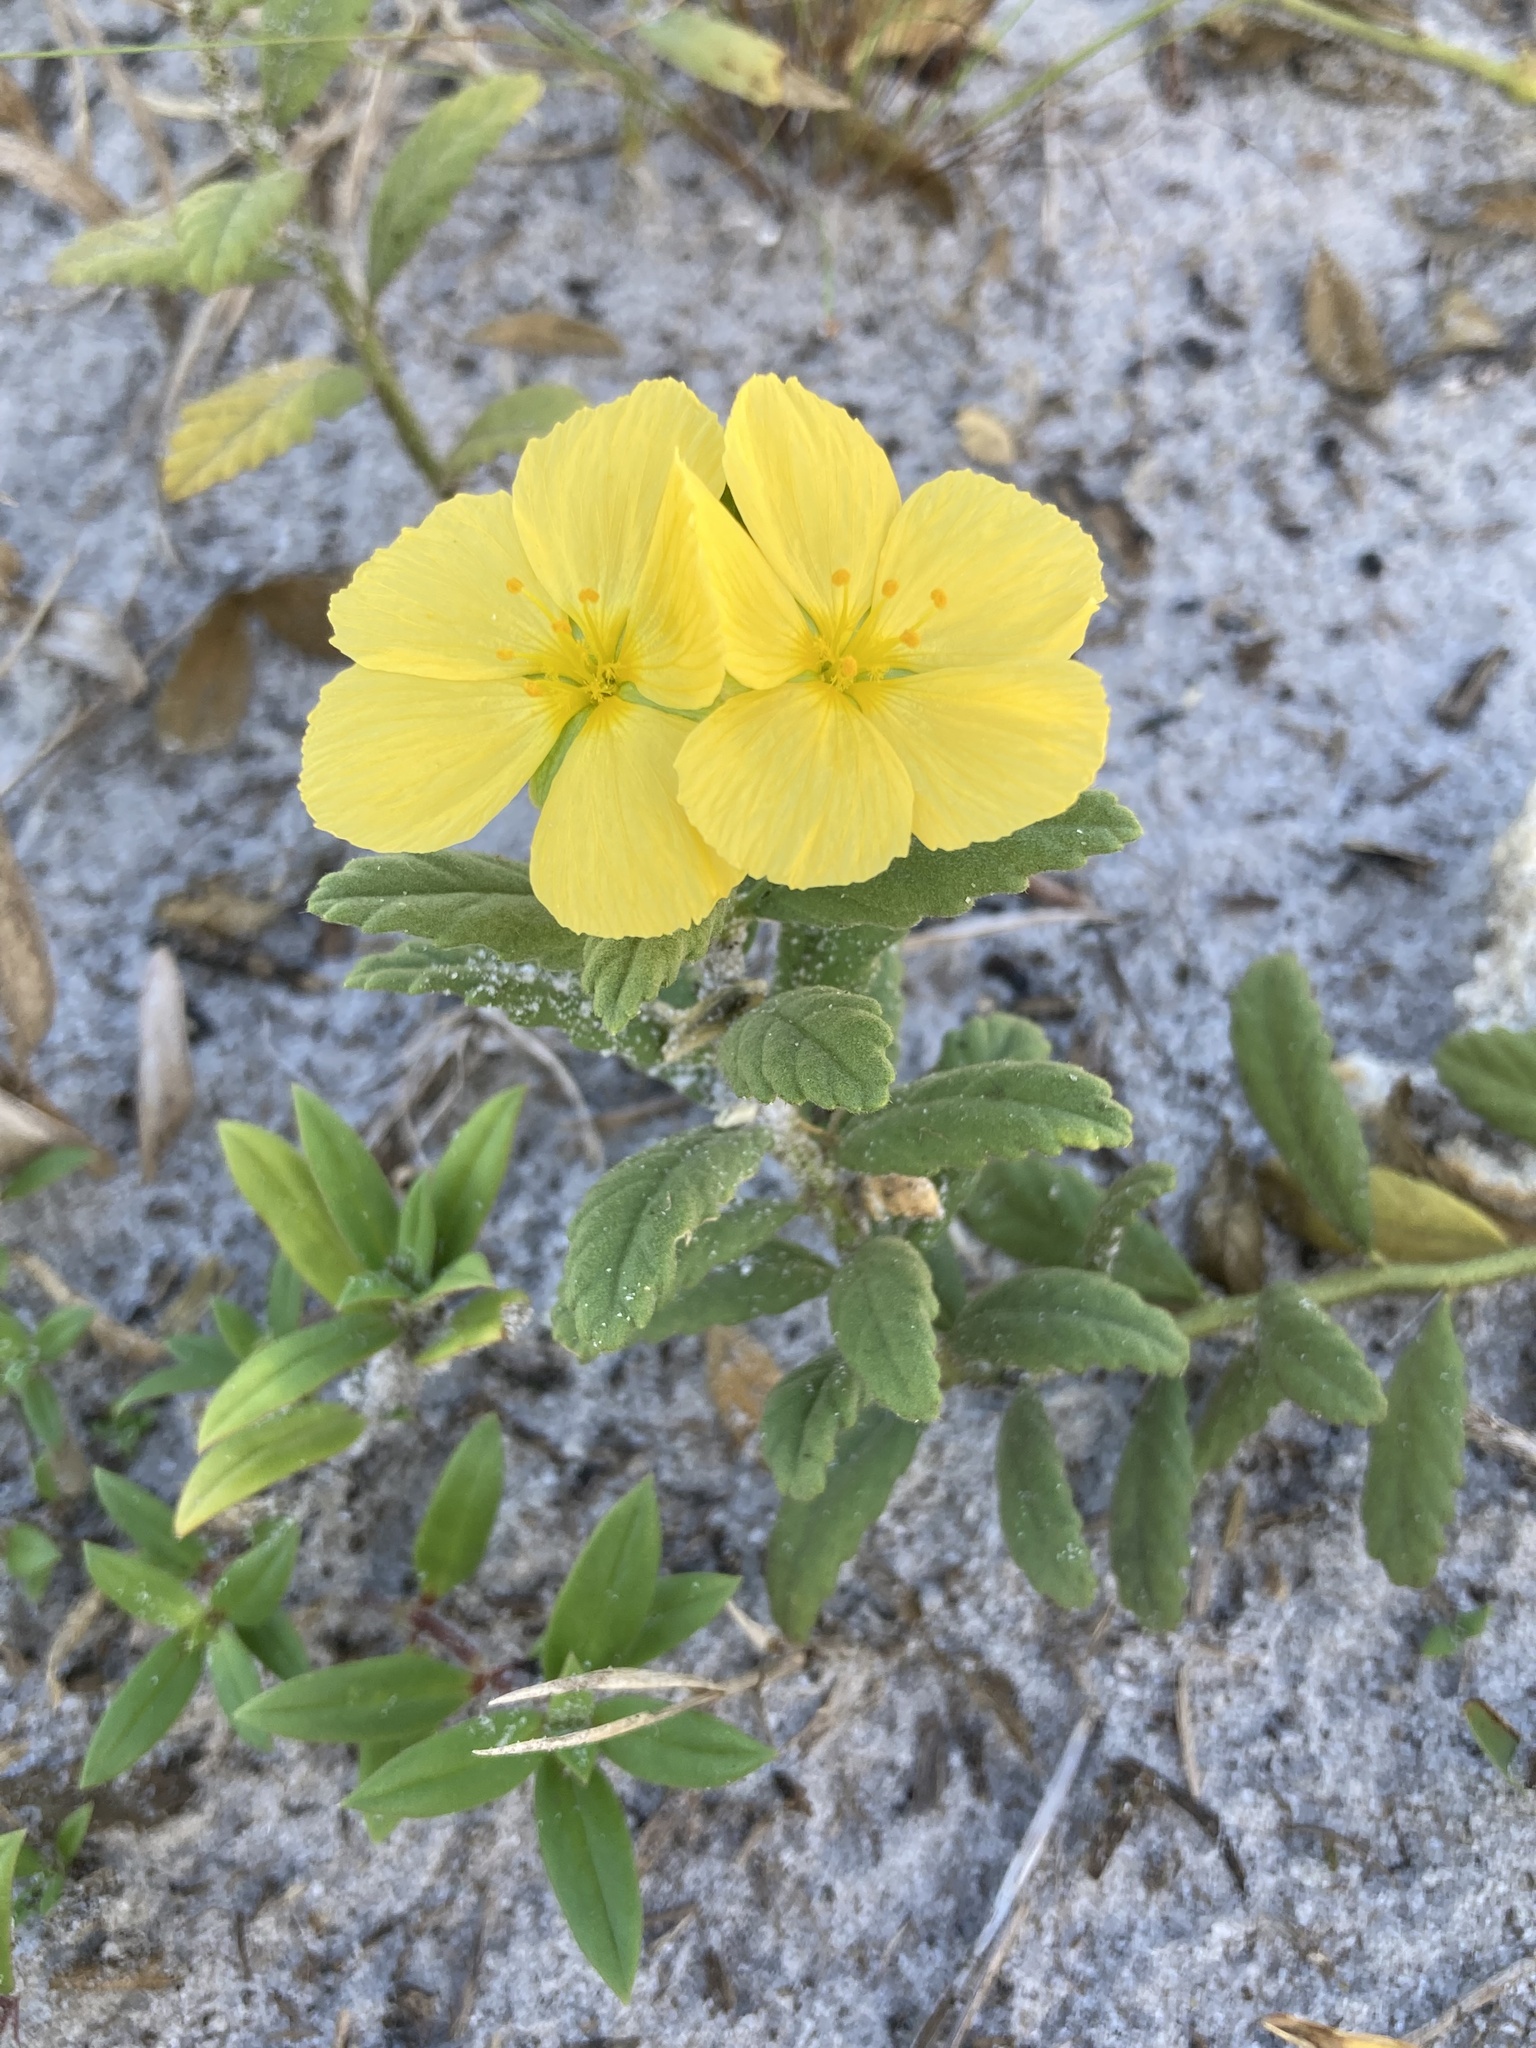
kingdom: Plantae
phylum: Tracheophyta
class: Magnoliopsida
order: Malpighiales
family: Turneraceae
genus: Piriqueta
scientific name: Piriqueta cistoides
